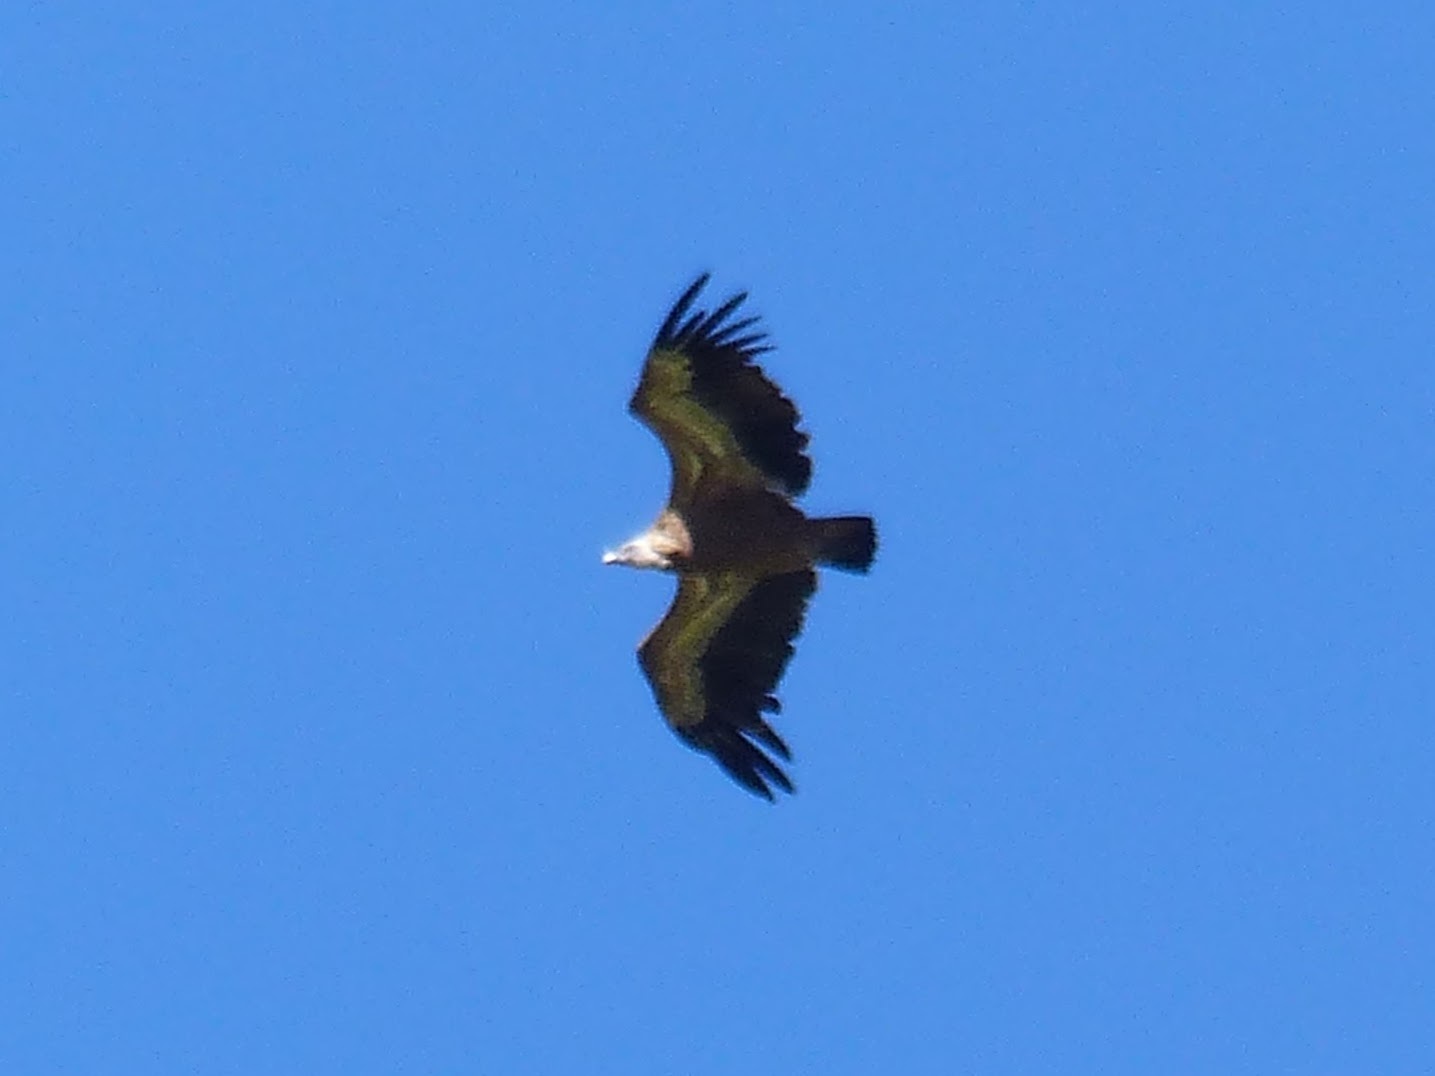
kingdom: Animalia
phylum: Chordata
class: Aves
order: Accipitriformes
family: Accipitridae
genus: Gyps
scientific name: Gyps fulvus
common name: Griffon vulture
